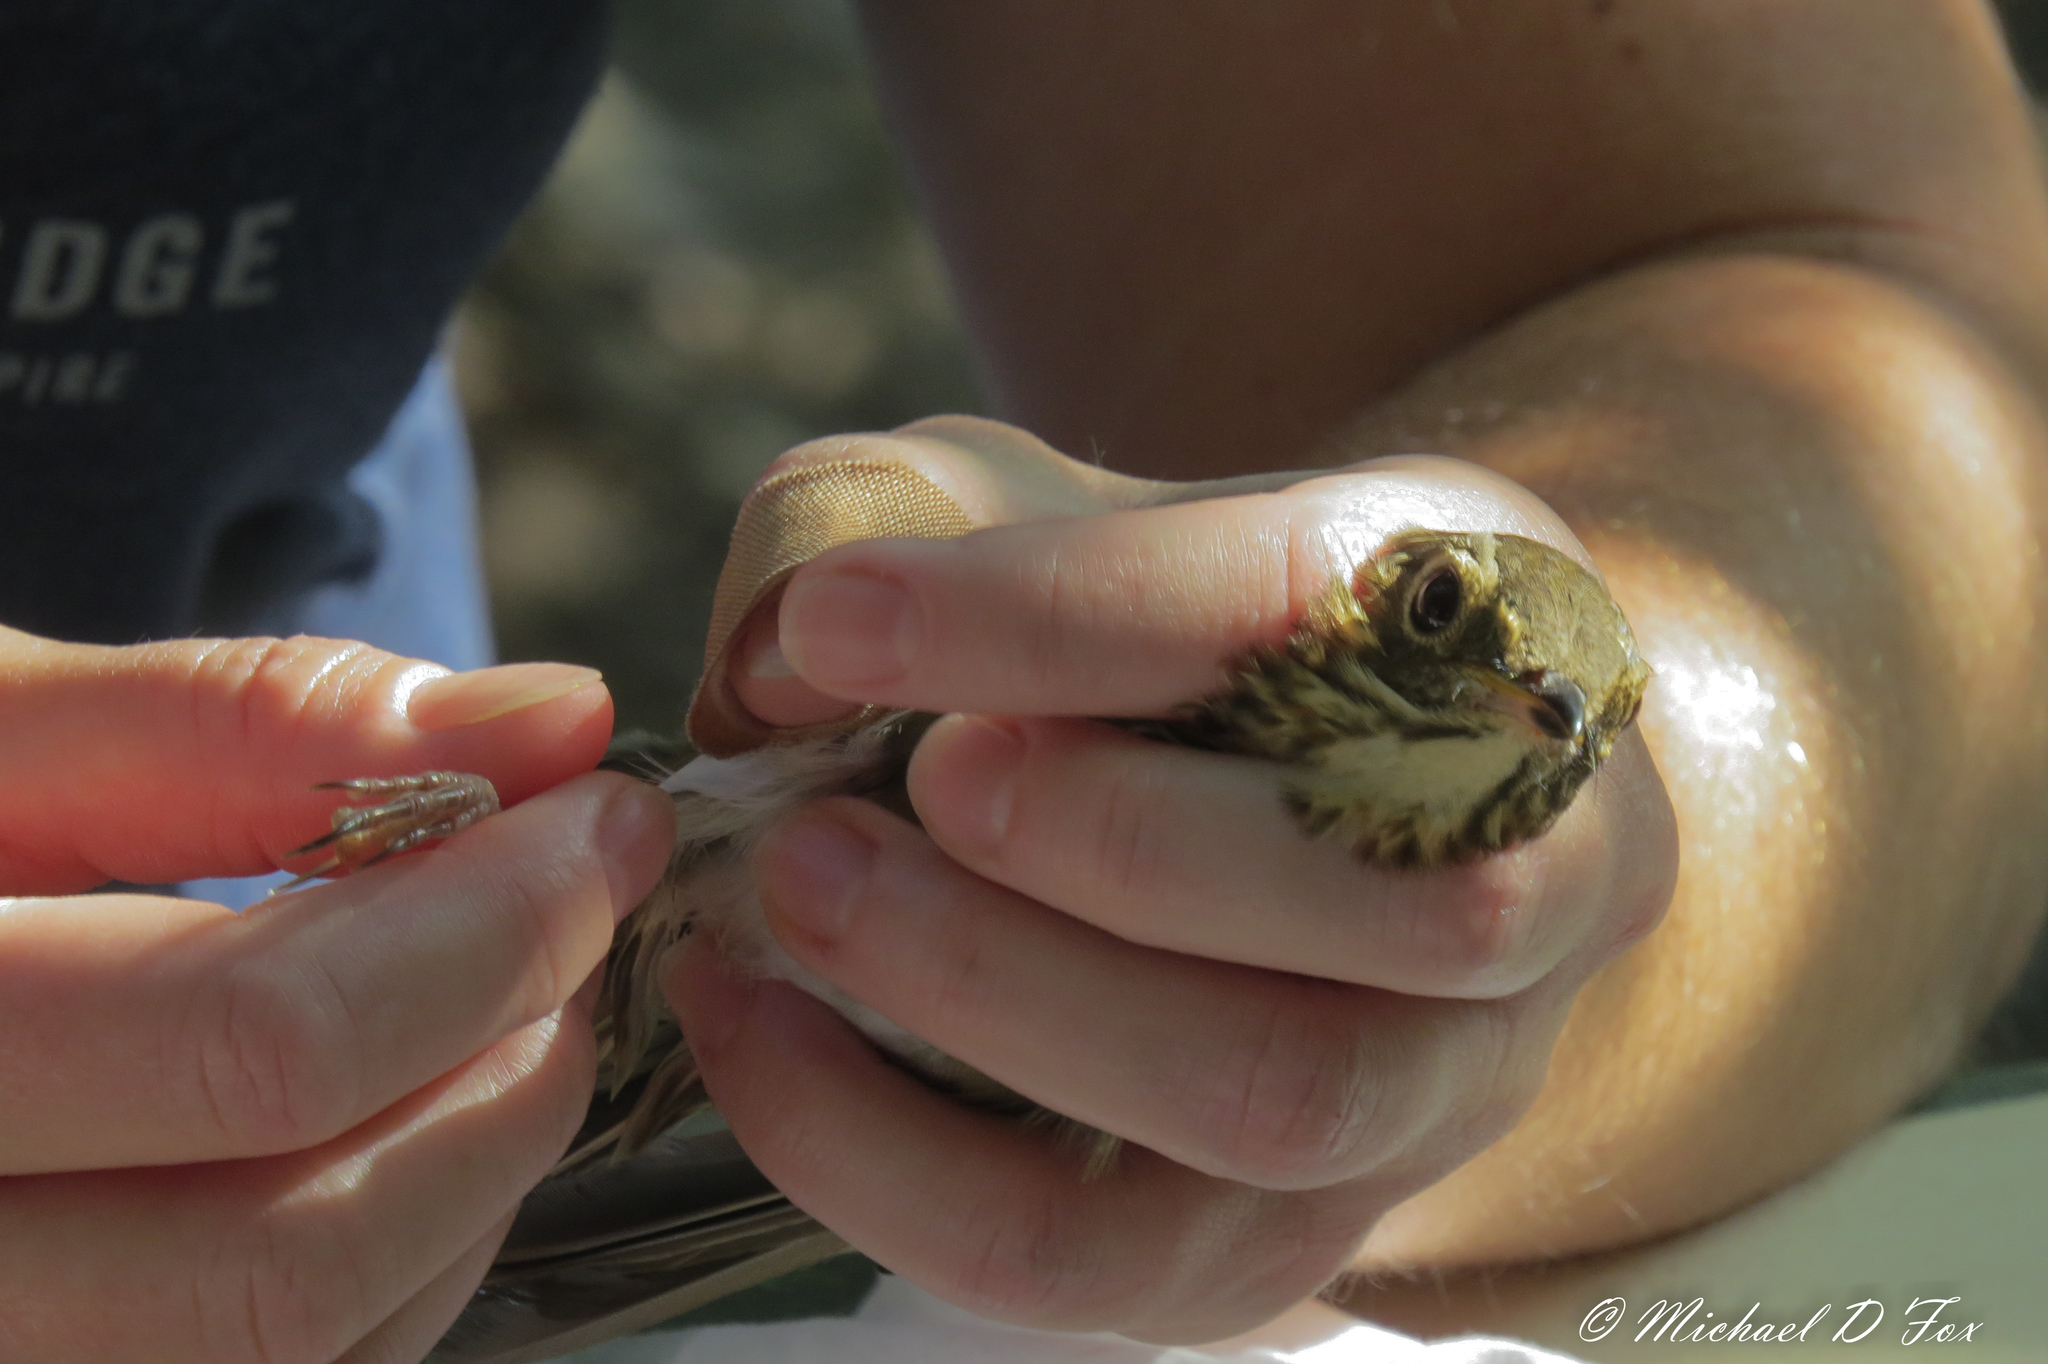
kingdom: Animalia
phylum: Chordata
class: Aves
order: Passeriformes
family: Turdidae
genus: Catharus
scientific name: Catharus ustulatus
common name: Swainson's thrush
